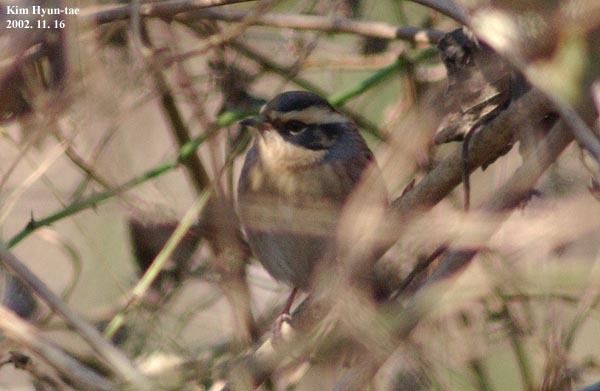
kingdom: Animalia
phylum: Chordata
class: Aves
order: Passeriformes
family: Prunellidae
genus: Prunella
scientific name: Prunella montanella
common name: Siberian accentor
